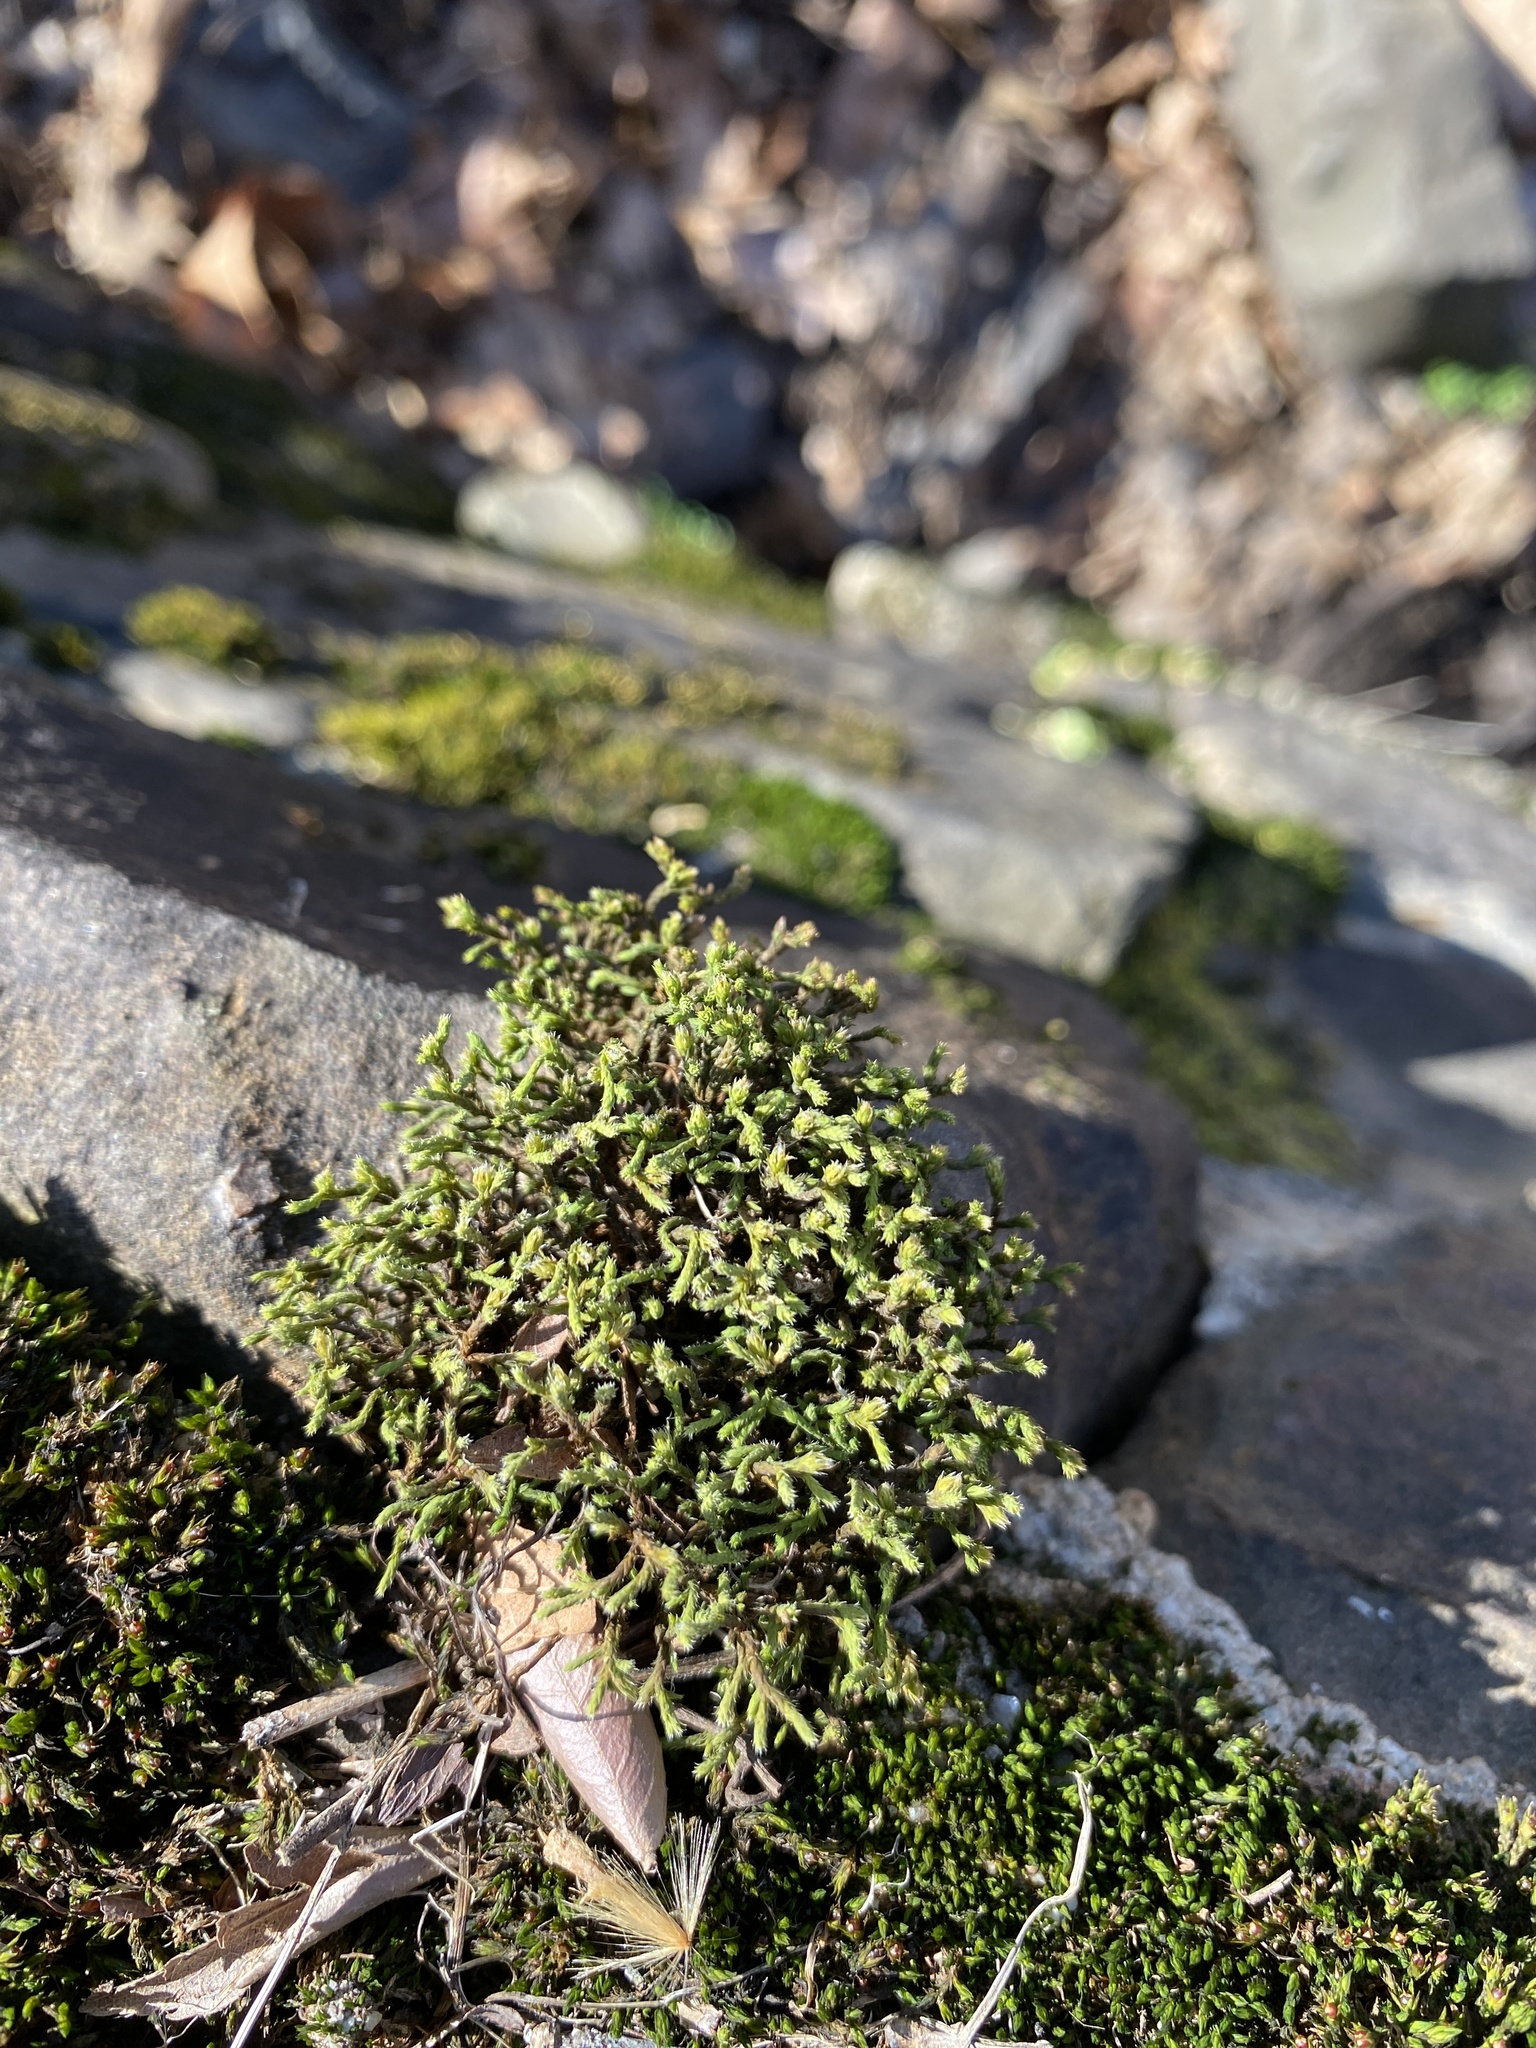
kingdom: Plantae
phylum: Bryophyta
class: Bryopsida
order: Hedwigiales
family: Hedwigiaceae
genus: Hedwigia
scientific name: Hedwigia ciliata
